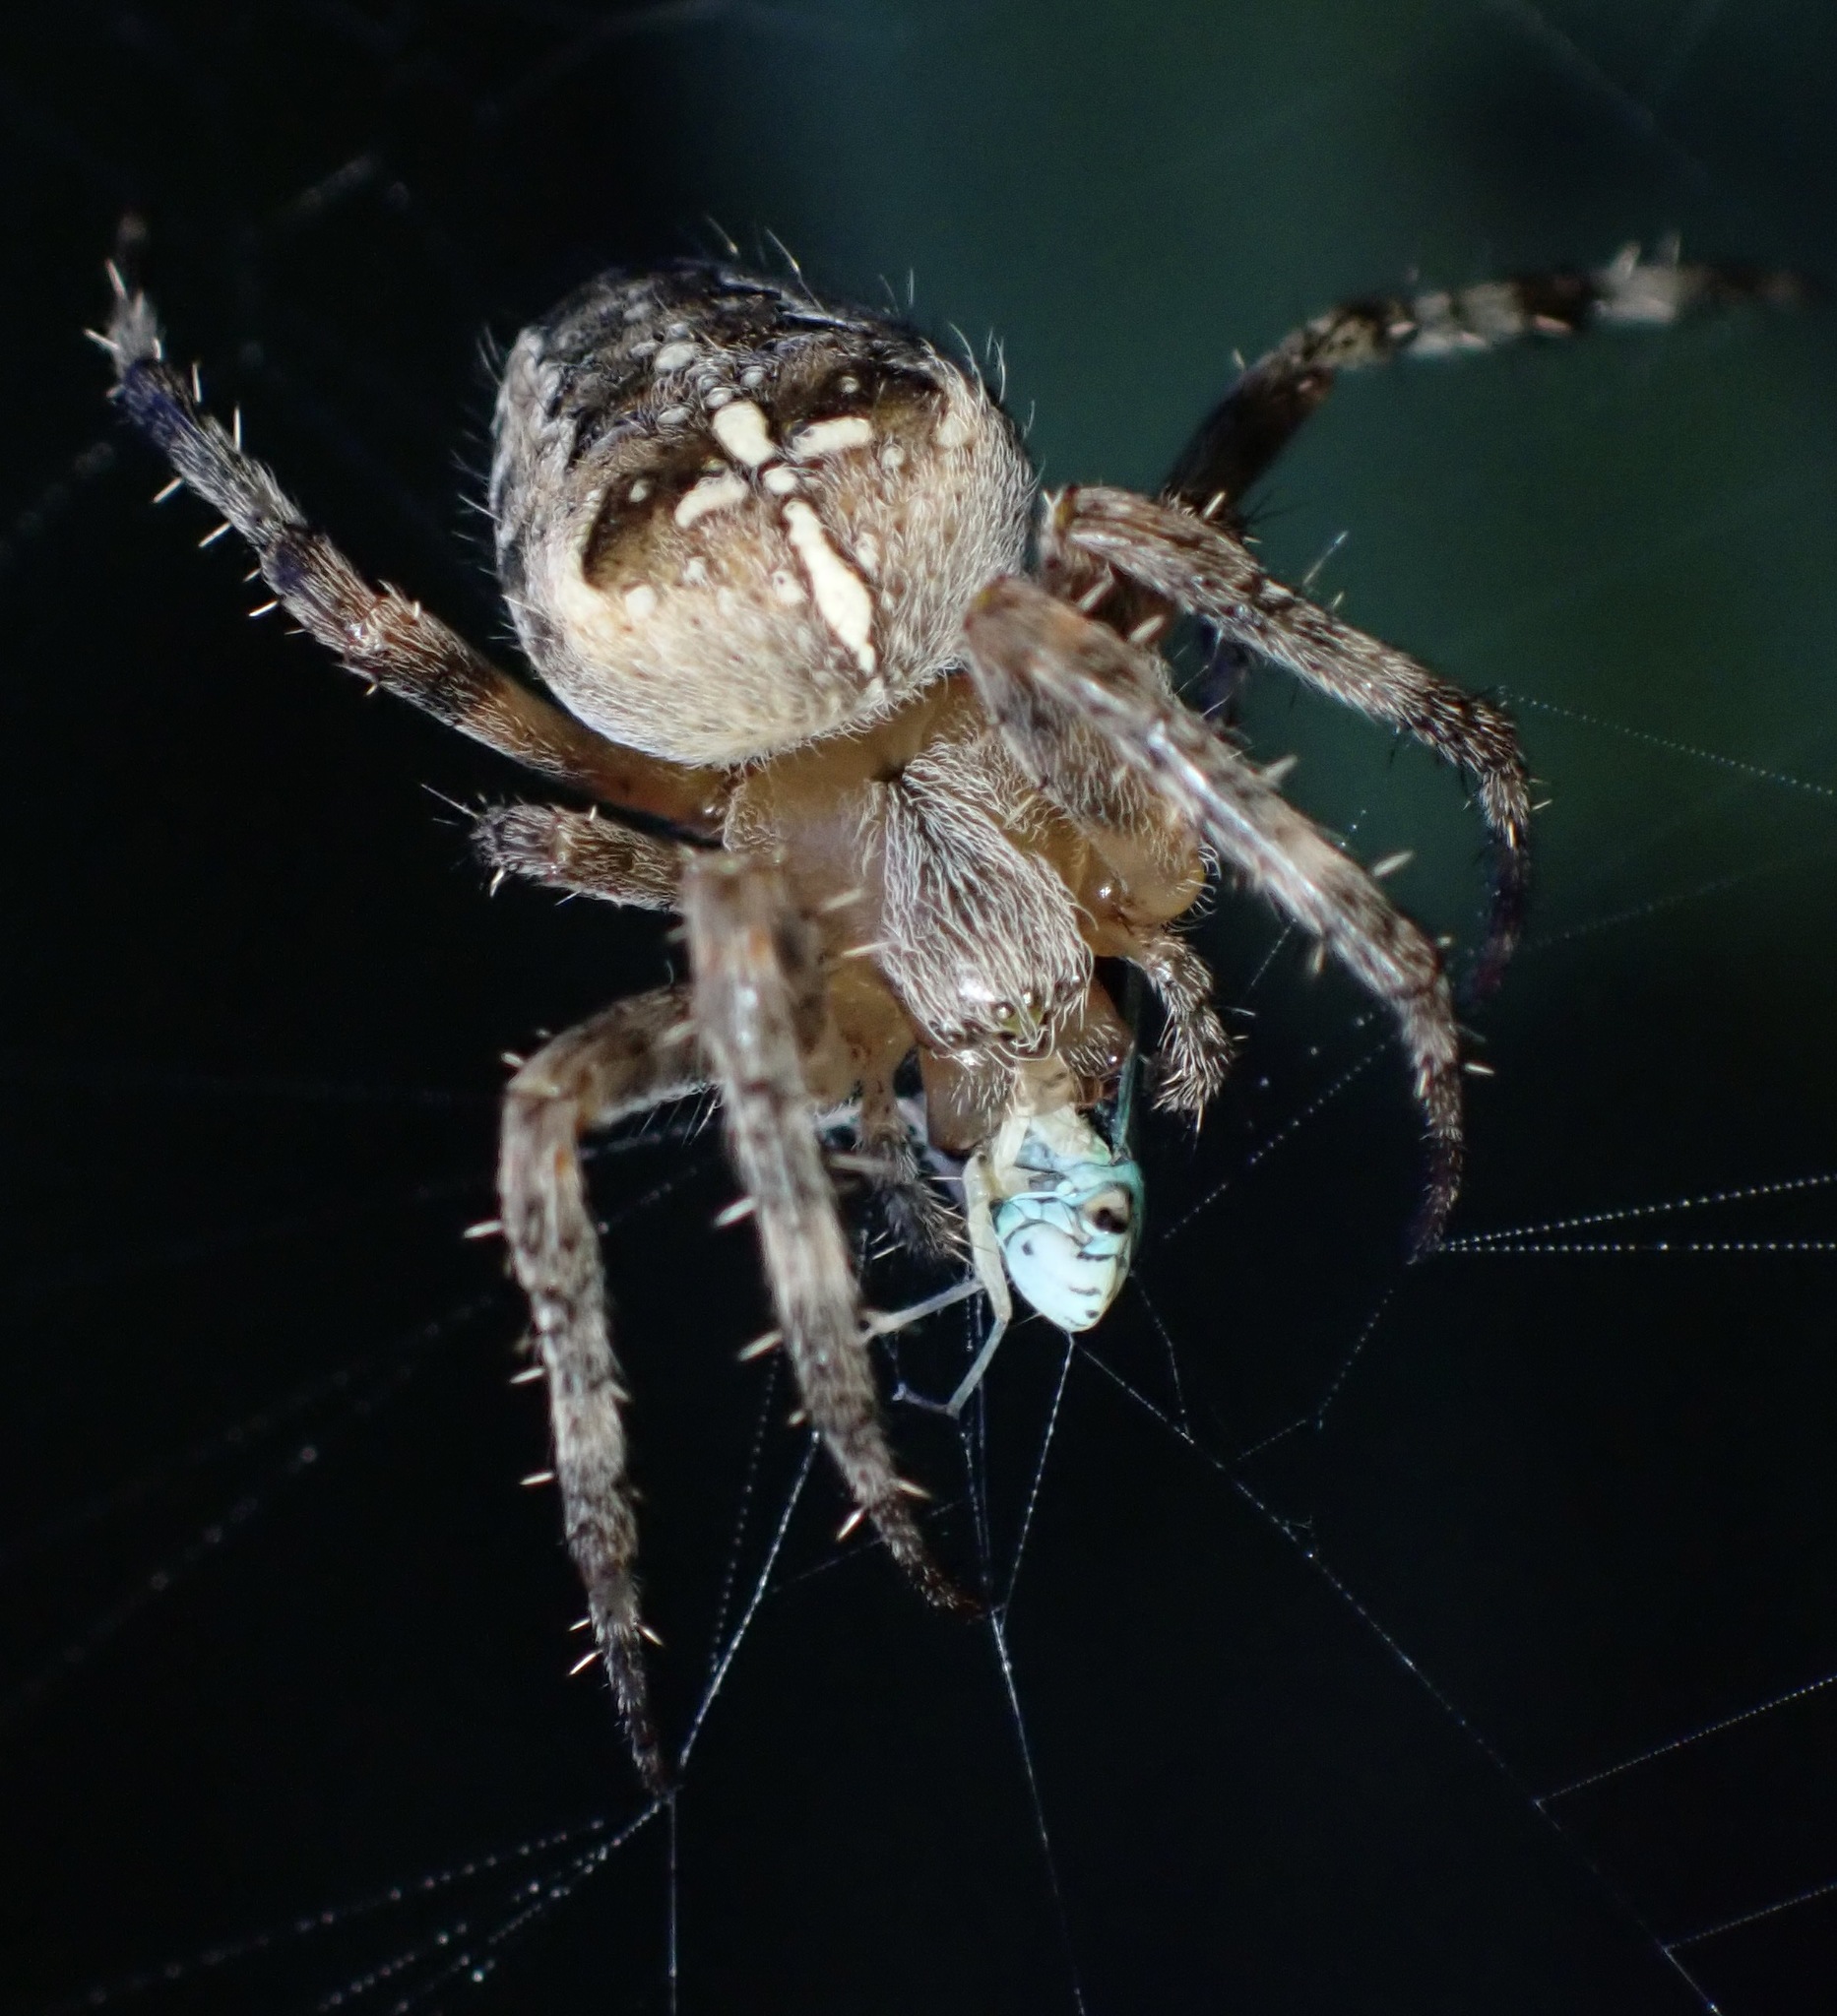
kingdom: Animalia
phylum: Arthropoda
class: Arachnida
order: Araneae
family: Araneidae
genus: Araneus
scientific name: Araneus diadematus
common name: Cross orbweaver
